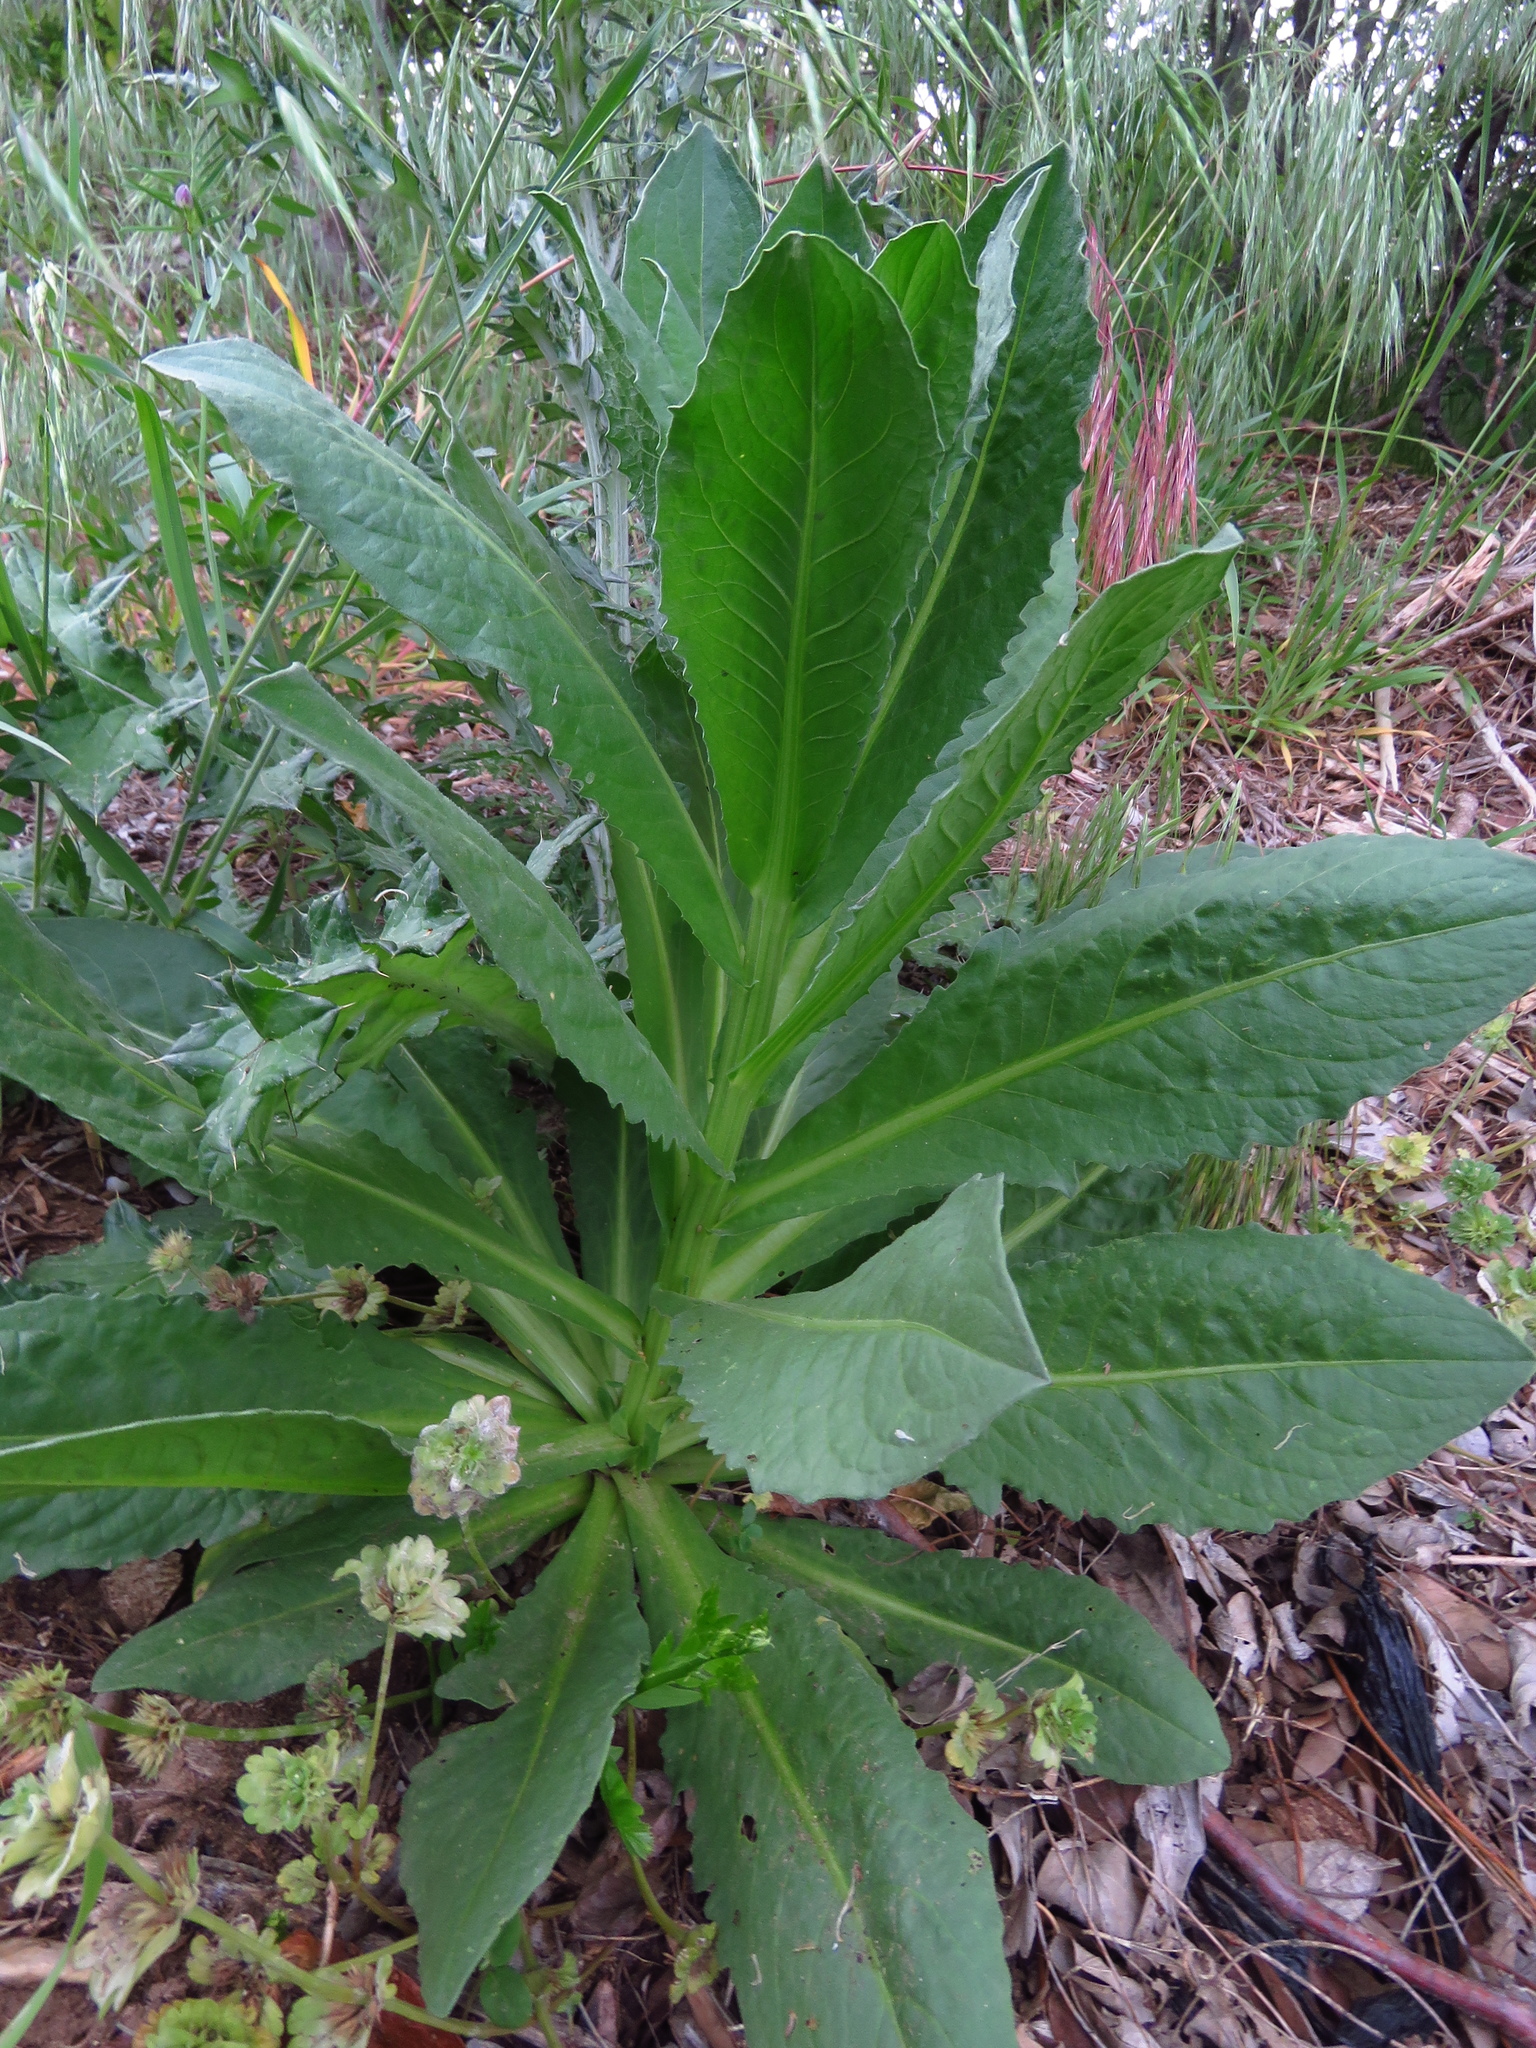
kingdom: Plantae
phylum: Tracheophyta
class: Magnoliopsida
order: Asterales
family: Asteraceae
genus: Vernonia
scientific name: Vernonia baldwinii
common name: Western ironweed
